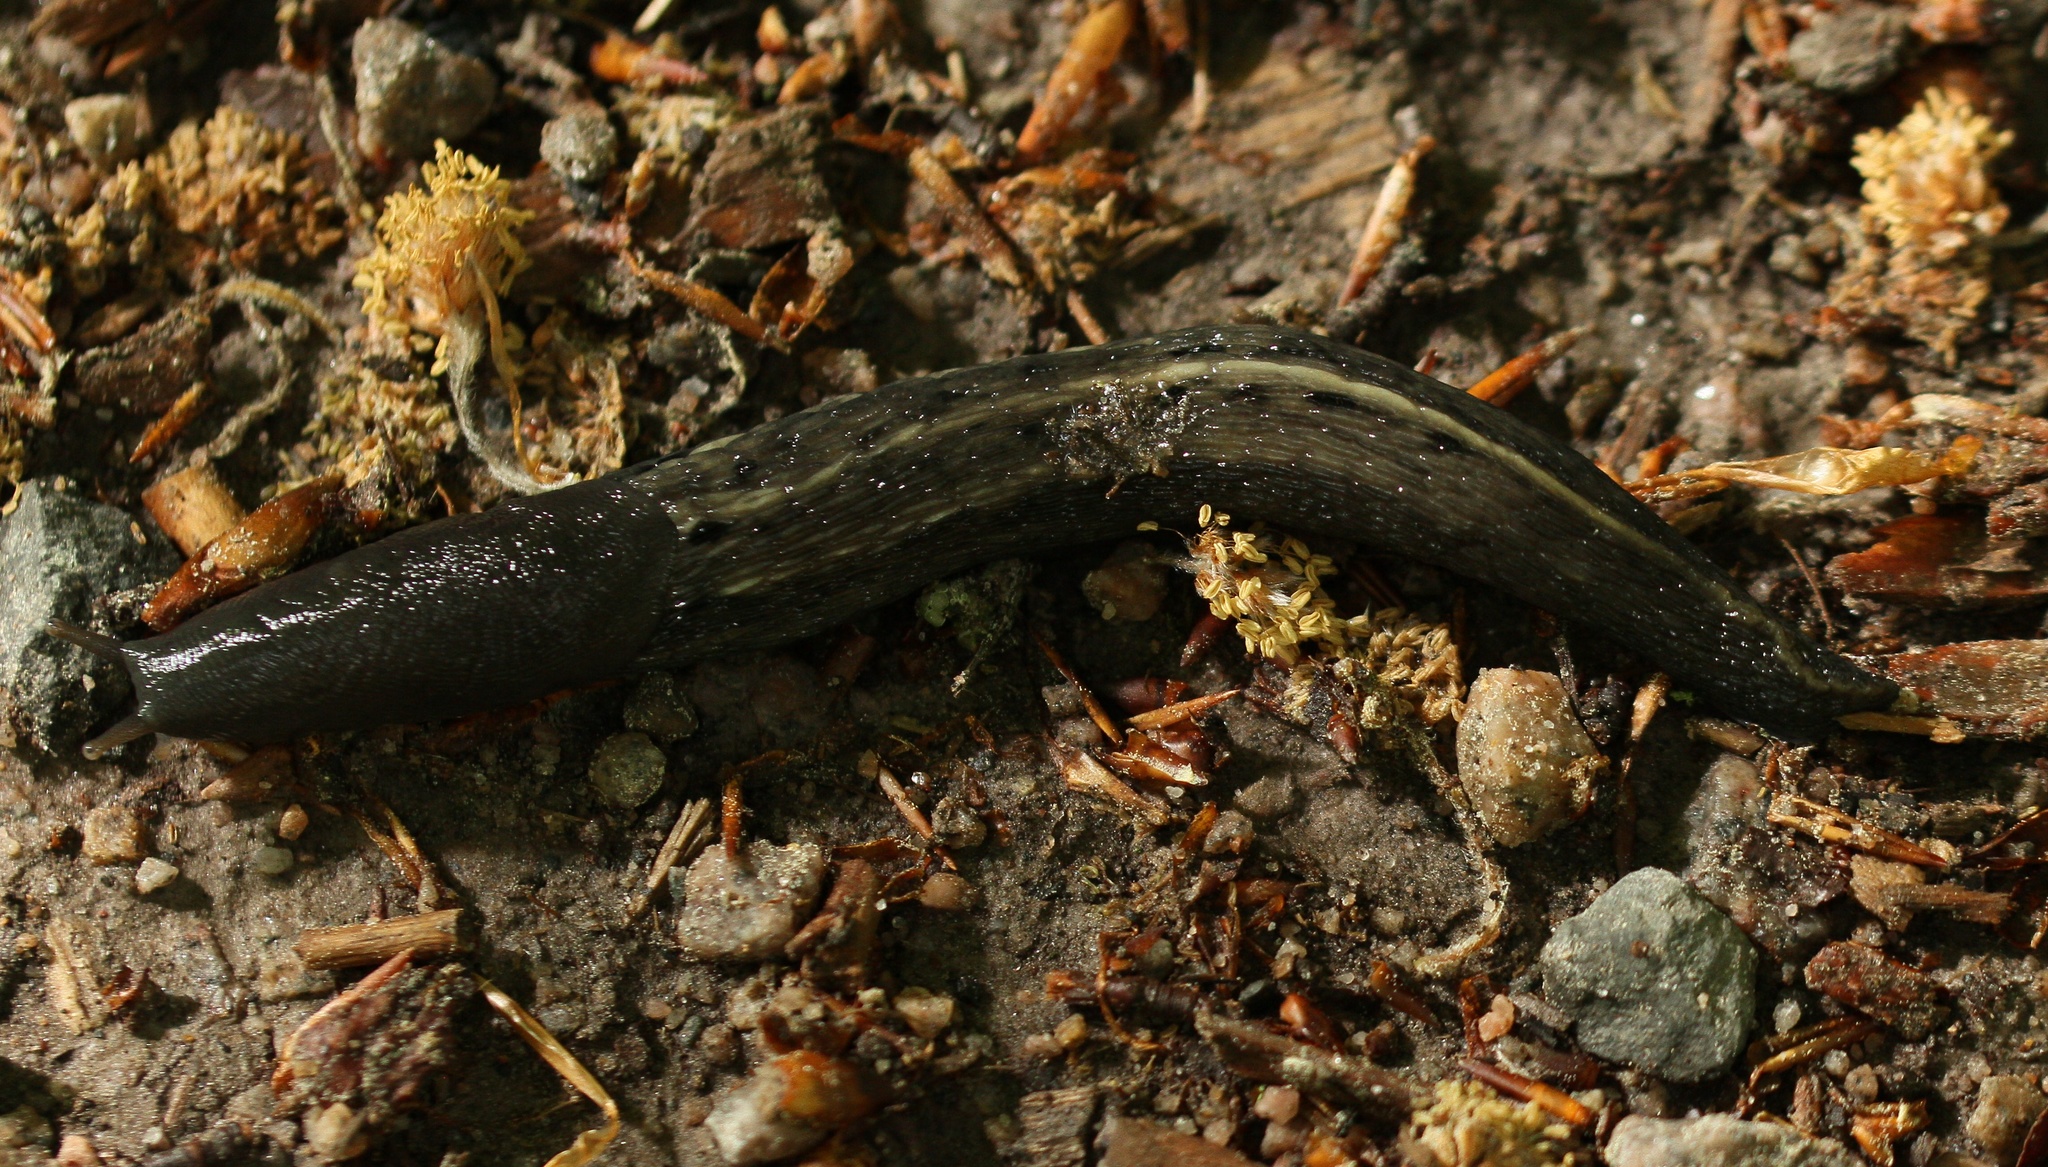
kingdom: Animalia
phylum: Mollusca
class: Gastropoda
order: Stylommatophora
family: Limacidae
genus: Limax
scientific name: Limax cinereoniger
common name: Ash-black slug
